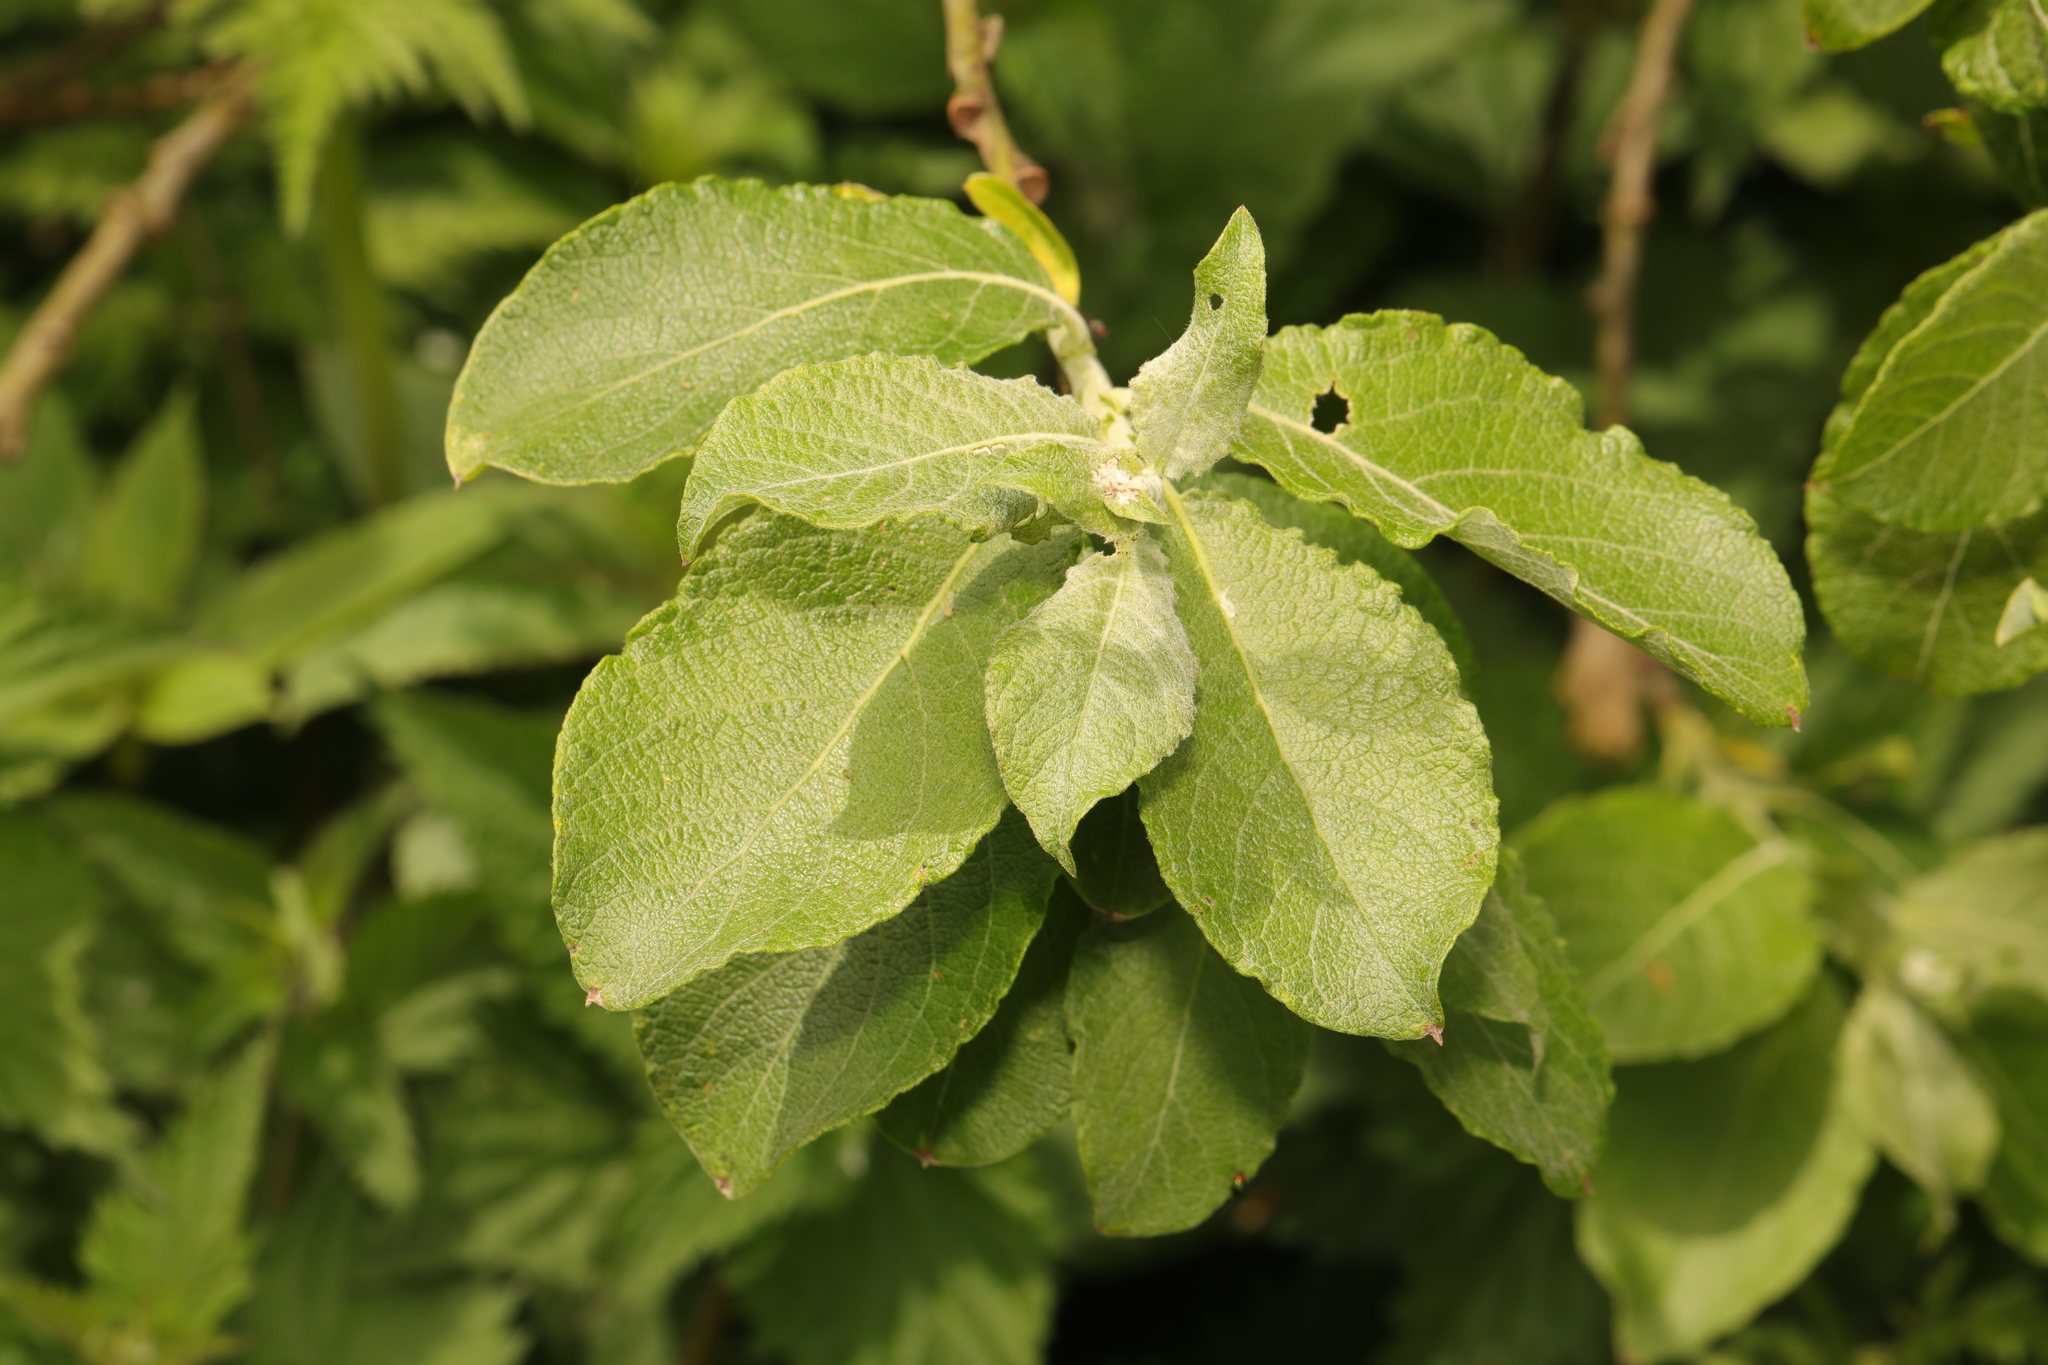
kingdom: Plantae
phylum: Tracheophyta
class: Magnoliopsida
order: Malpighiales
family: Salicaceae
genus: Salix
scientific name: Salix caprea
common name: Goat willow
